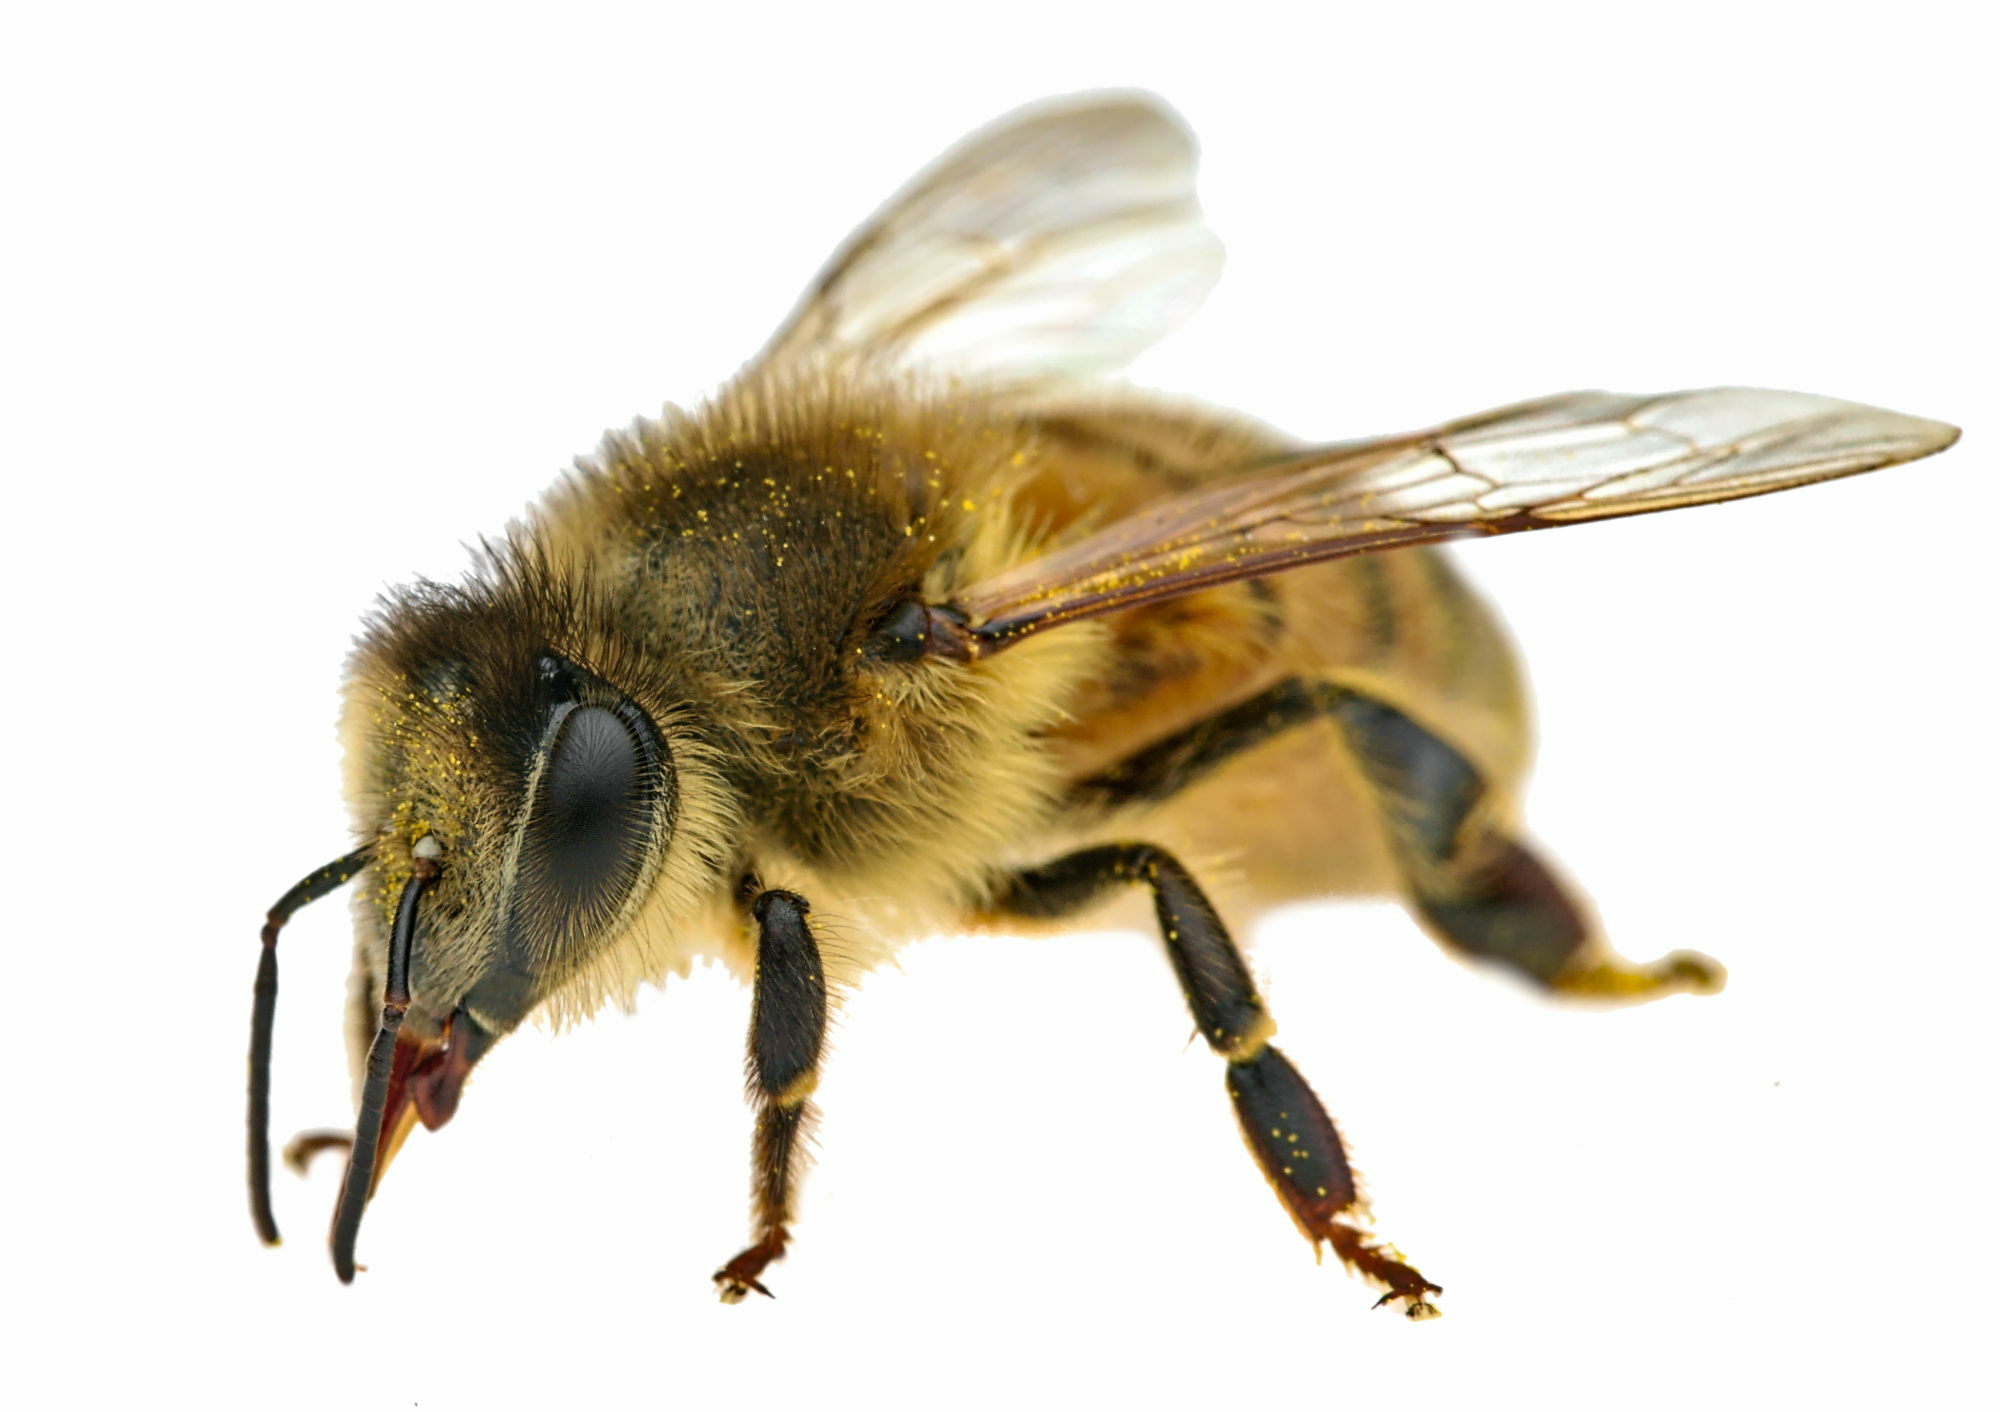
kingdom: Animalia
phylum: Arthropoda
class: Insecta
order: Hymenoptera
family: Apidae
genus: Apis
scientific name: Apis mellifera
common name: Honey bee
